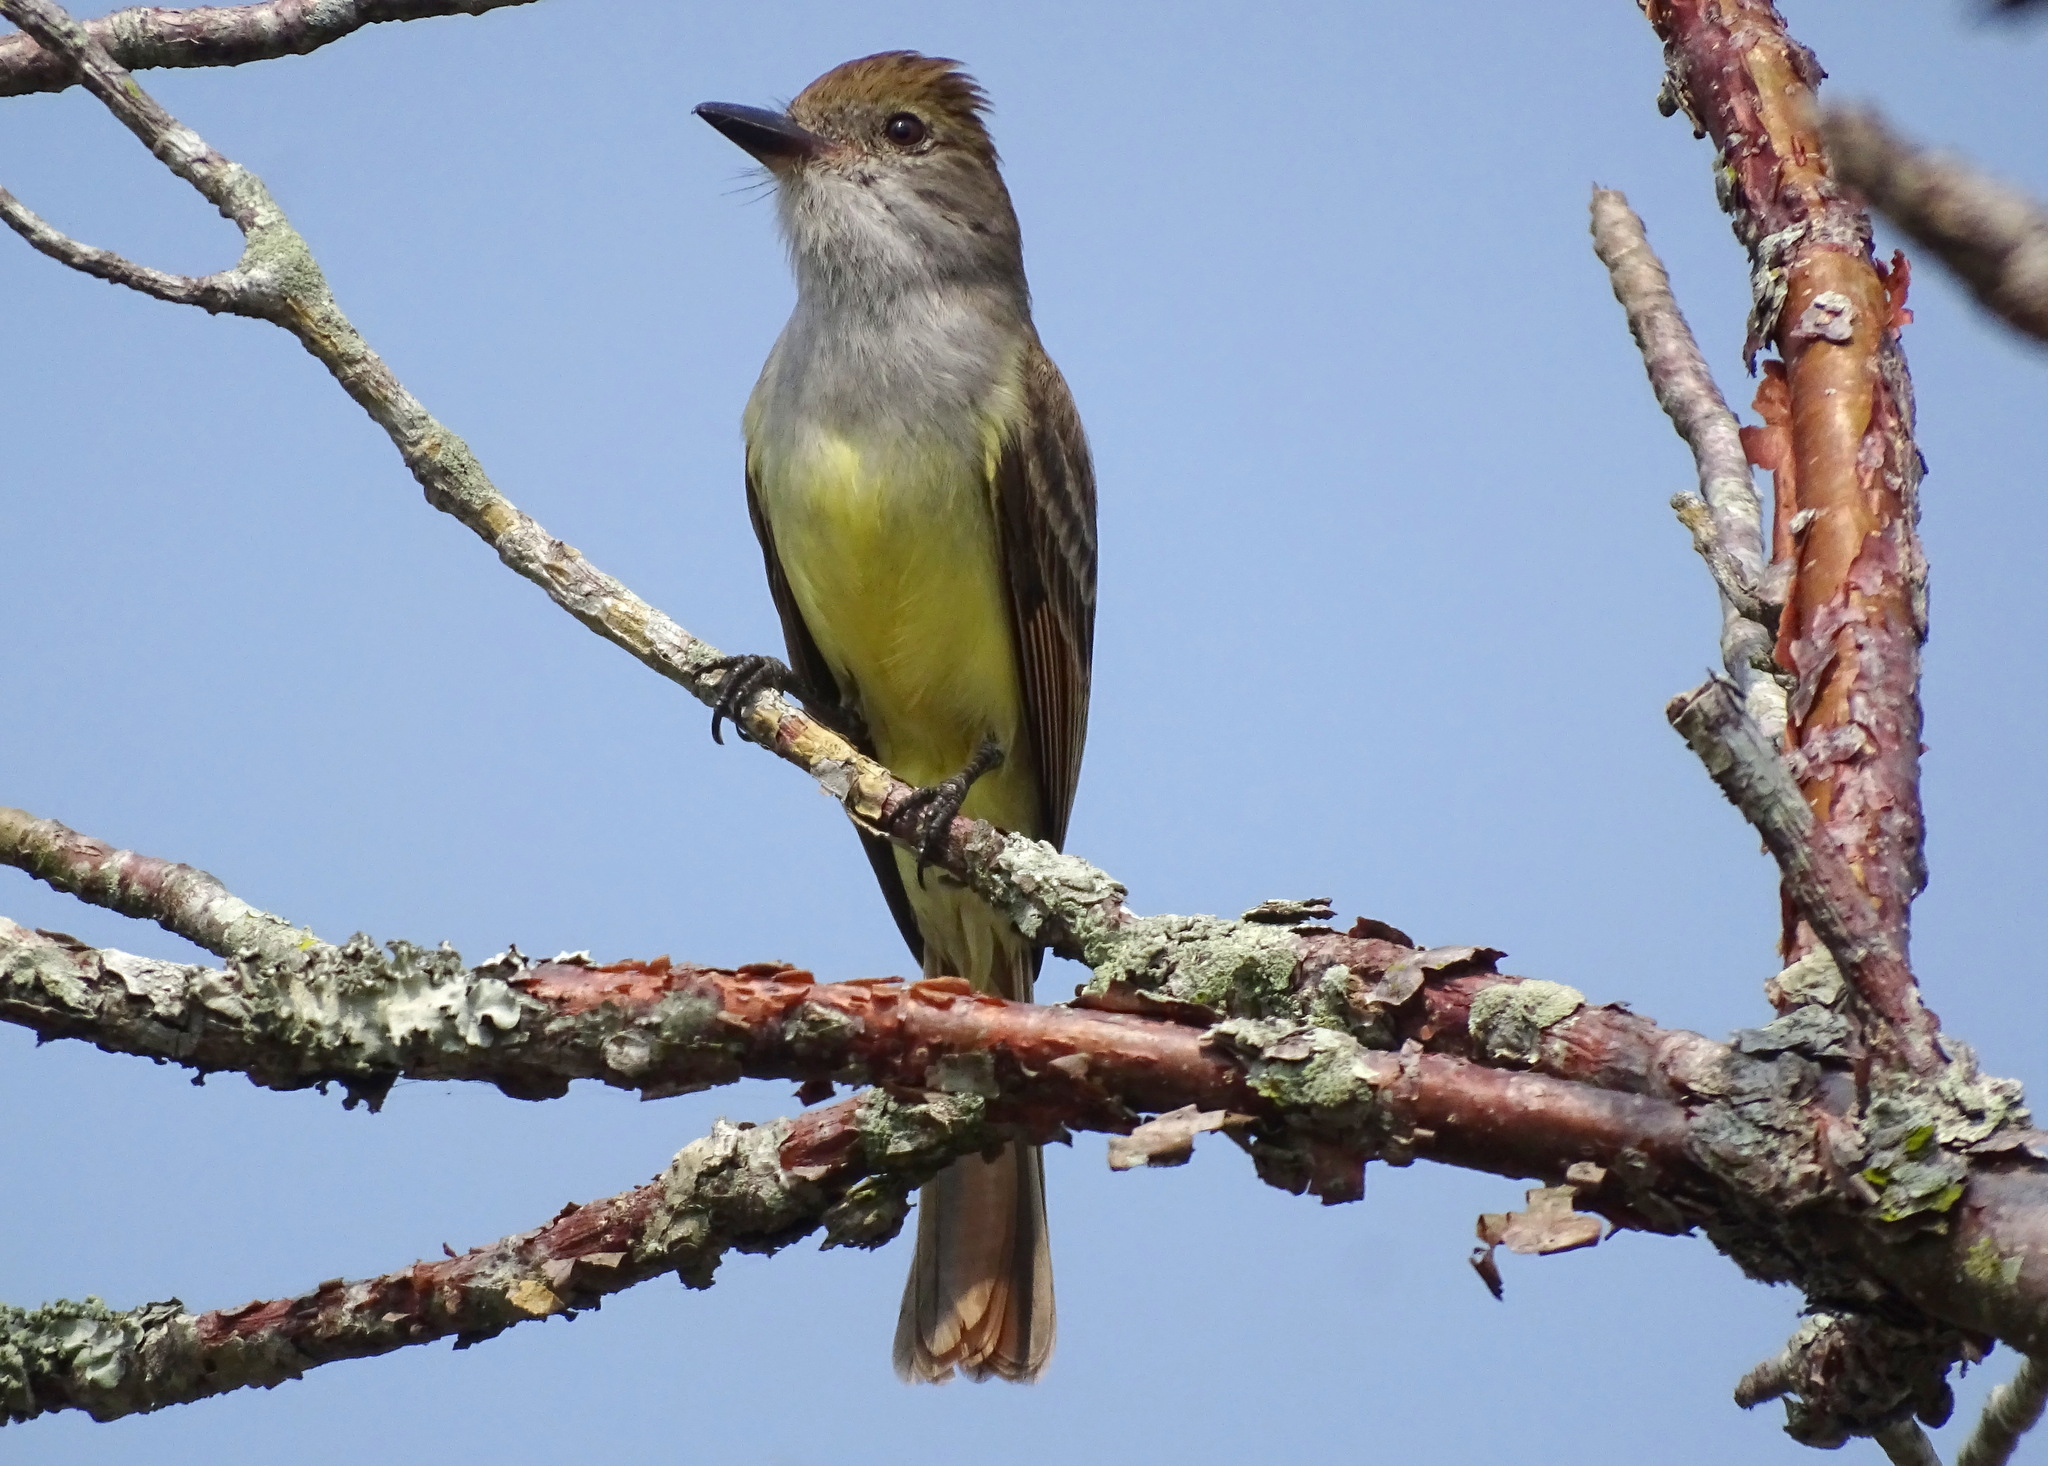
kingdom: Animalia
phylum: Chordata
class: Aves
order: Passeriformes
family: Tyrannidae
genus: Myiarchus
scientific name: Myiarchus tyrannulus
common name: Brown-crested flycatcher
